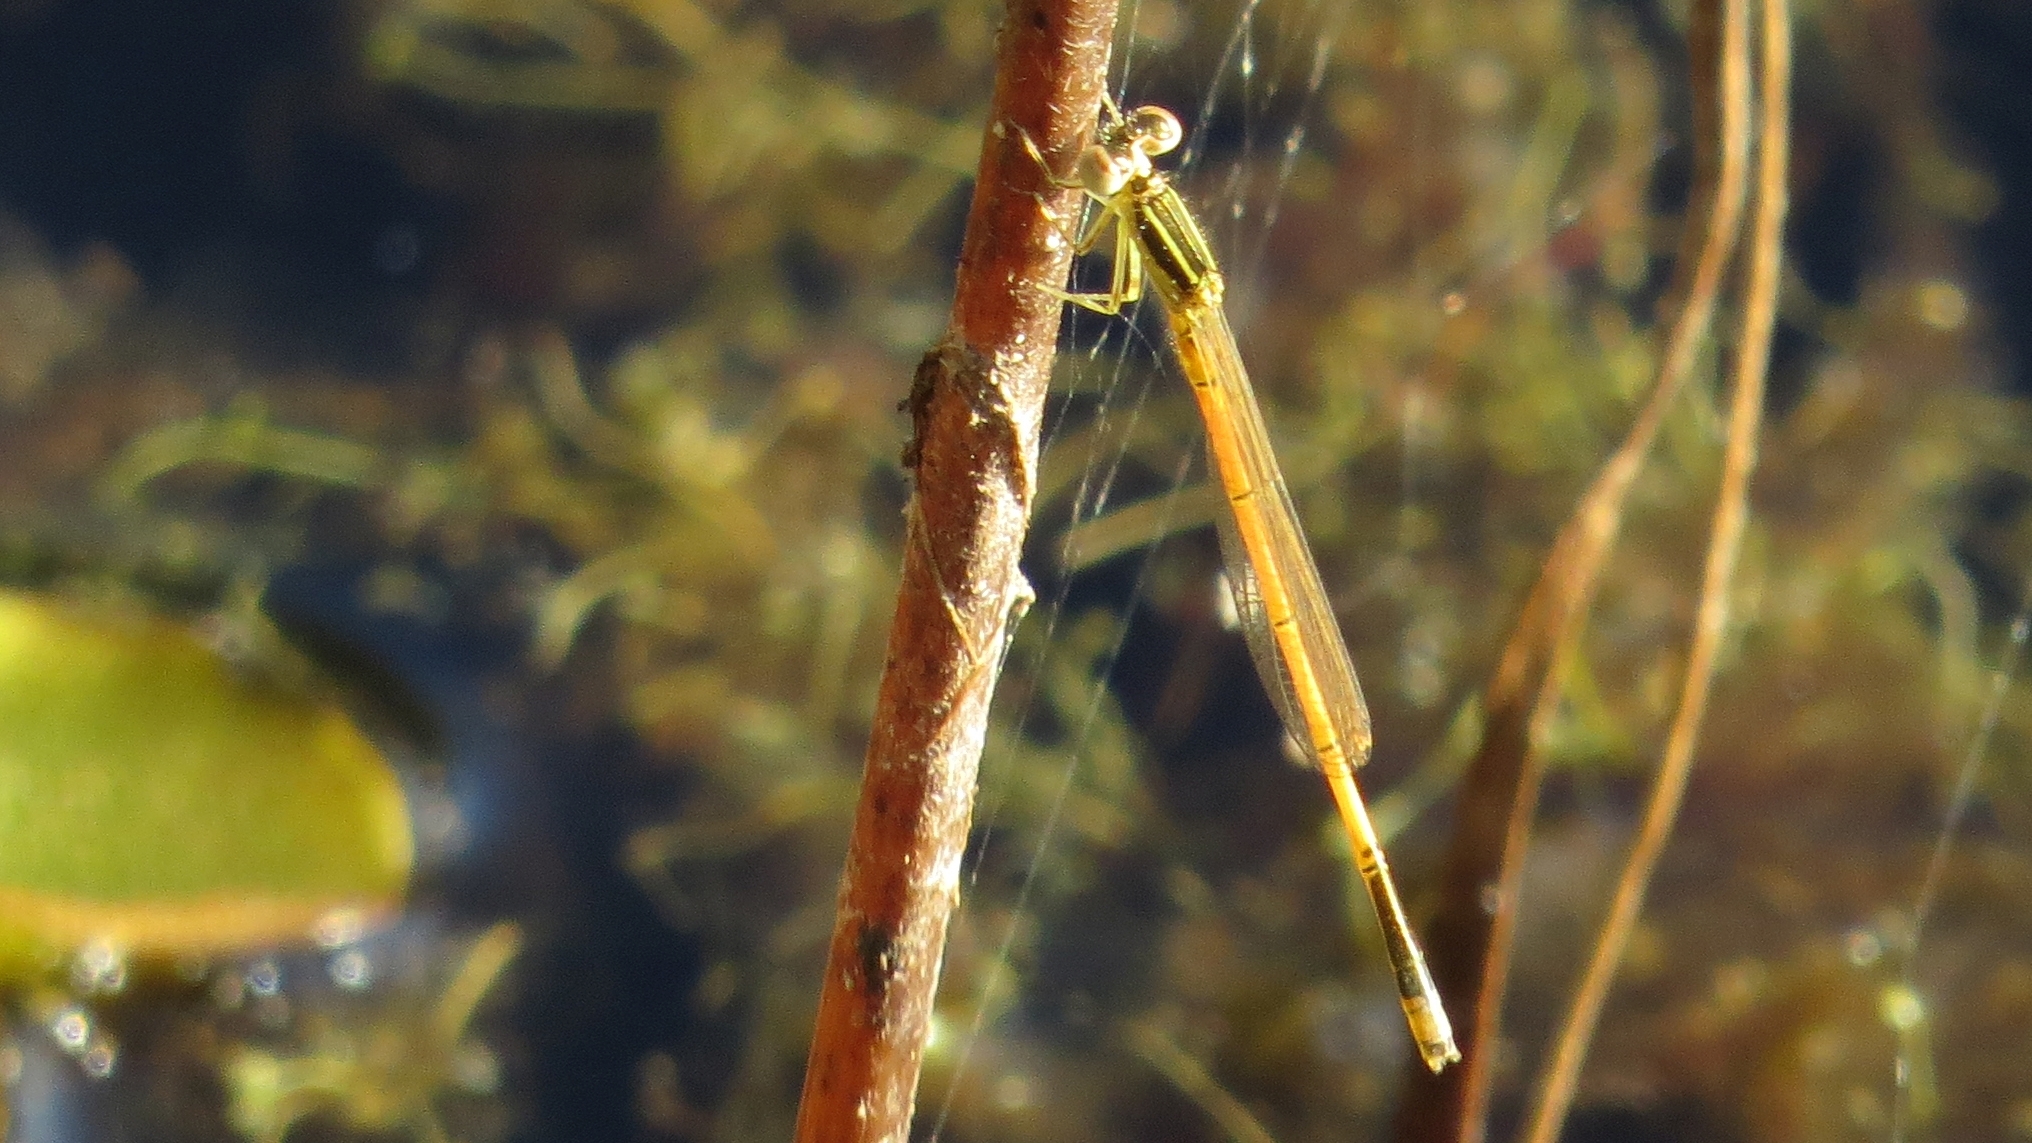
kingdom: Animalia
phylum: Arthropoda
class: Insecta
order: Odonata
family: Coenagrionidae
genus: Ischnura
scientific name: Ischnura aurora
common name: Gossamer damselfly
